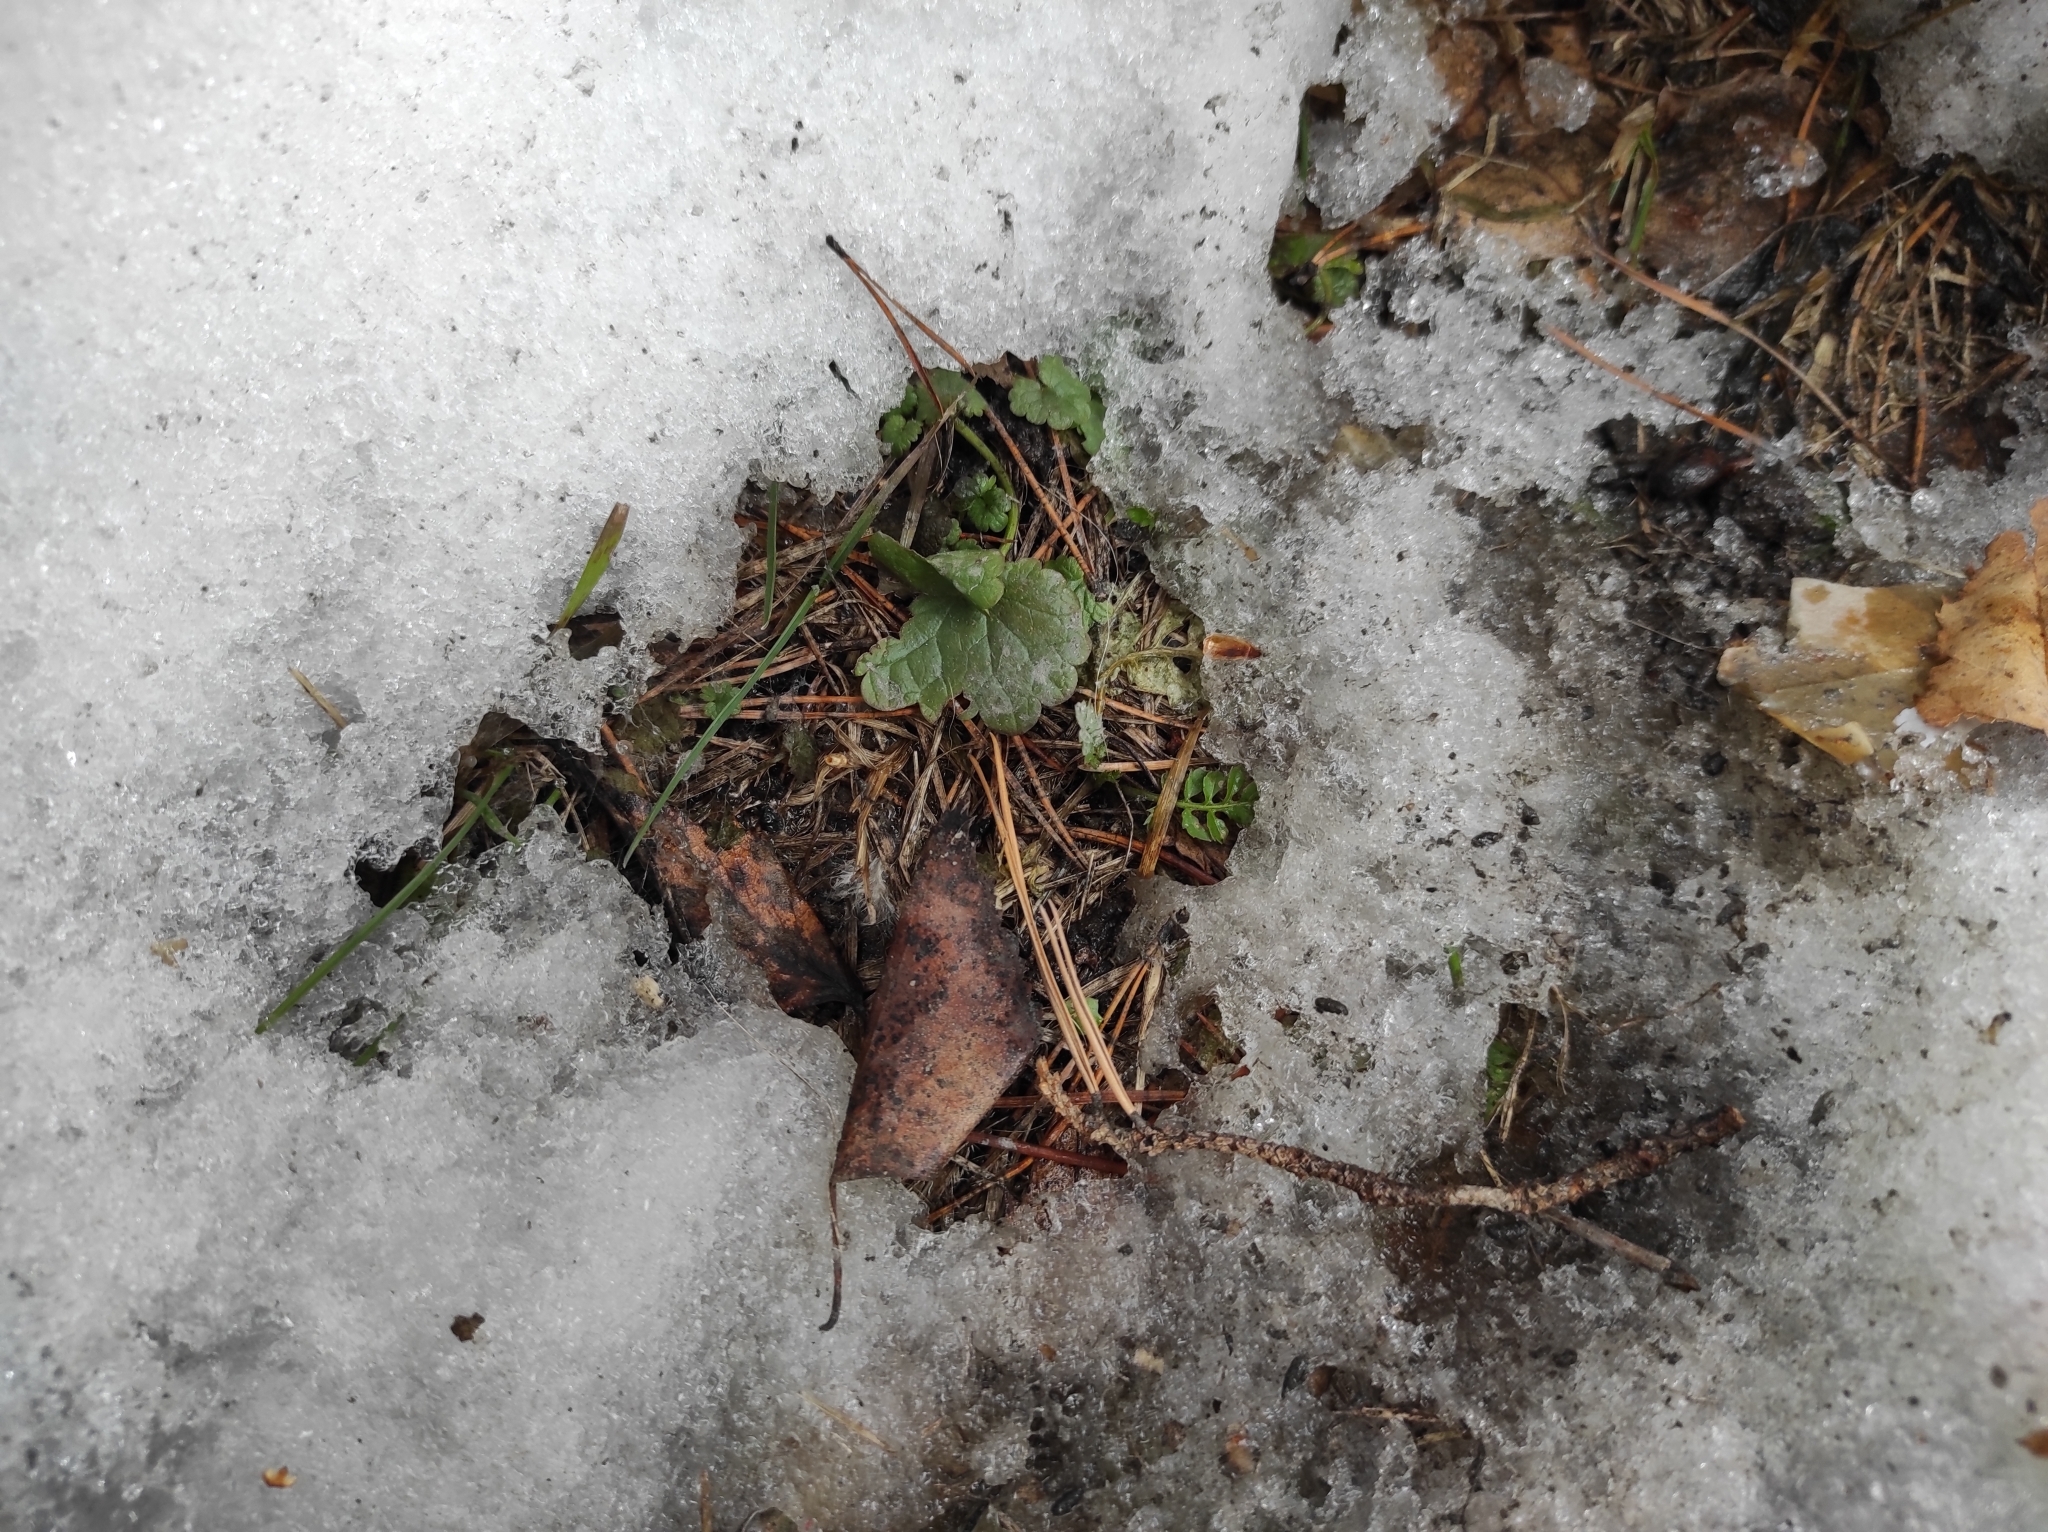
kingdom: Plantae
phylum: Tracheophyta
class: Magnoliopsida
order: Lamiales
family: Lamiaceae
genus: Glechoma
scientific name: Glechoma hederacea
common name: Ground ivy
